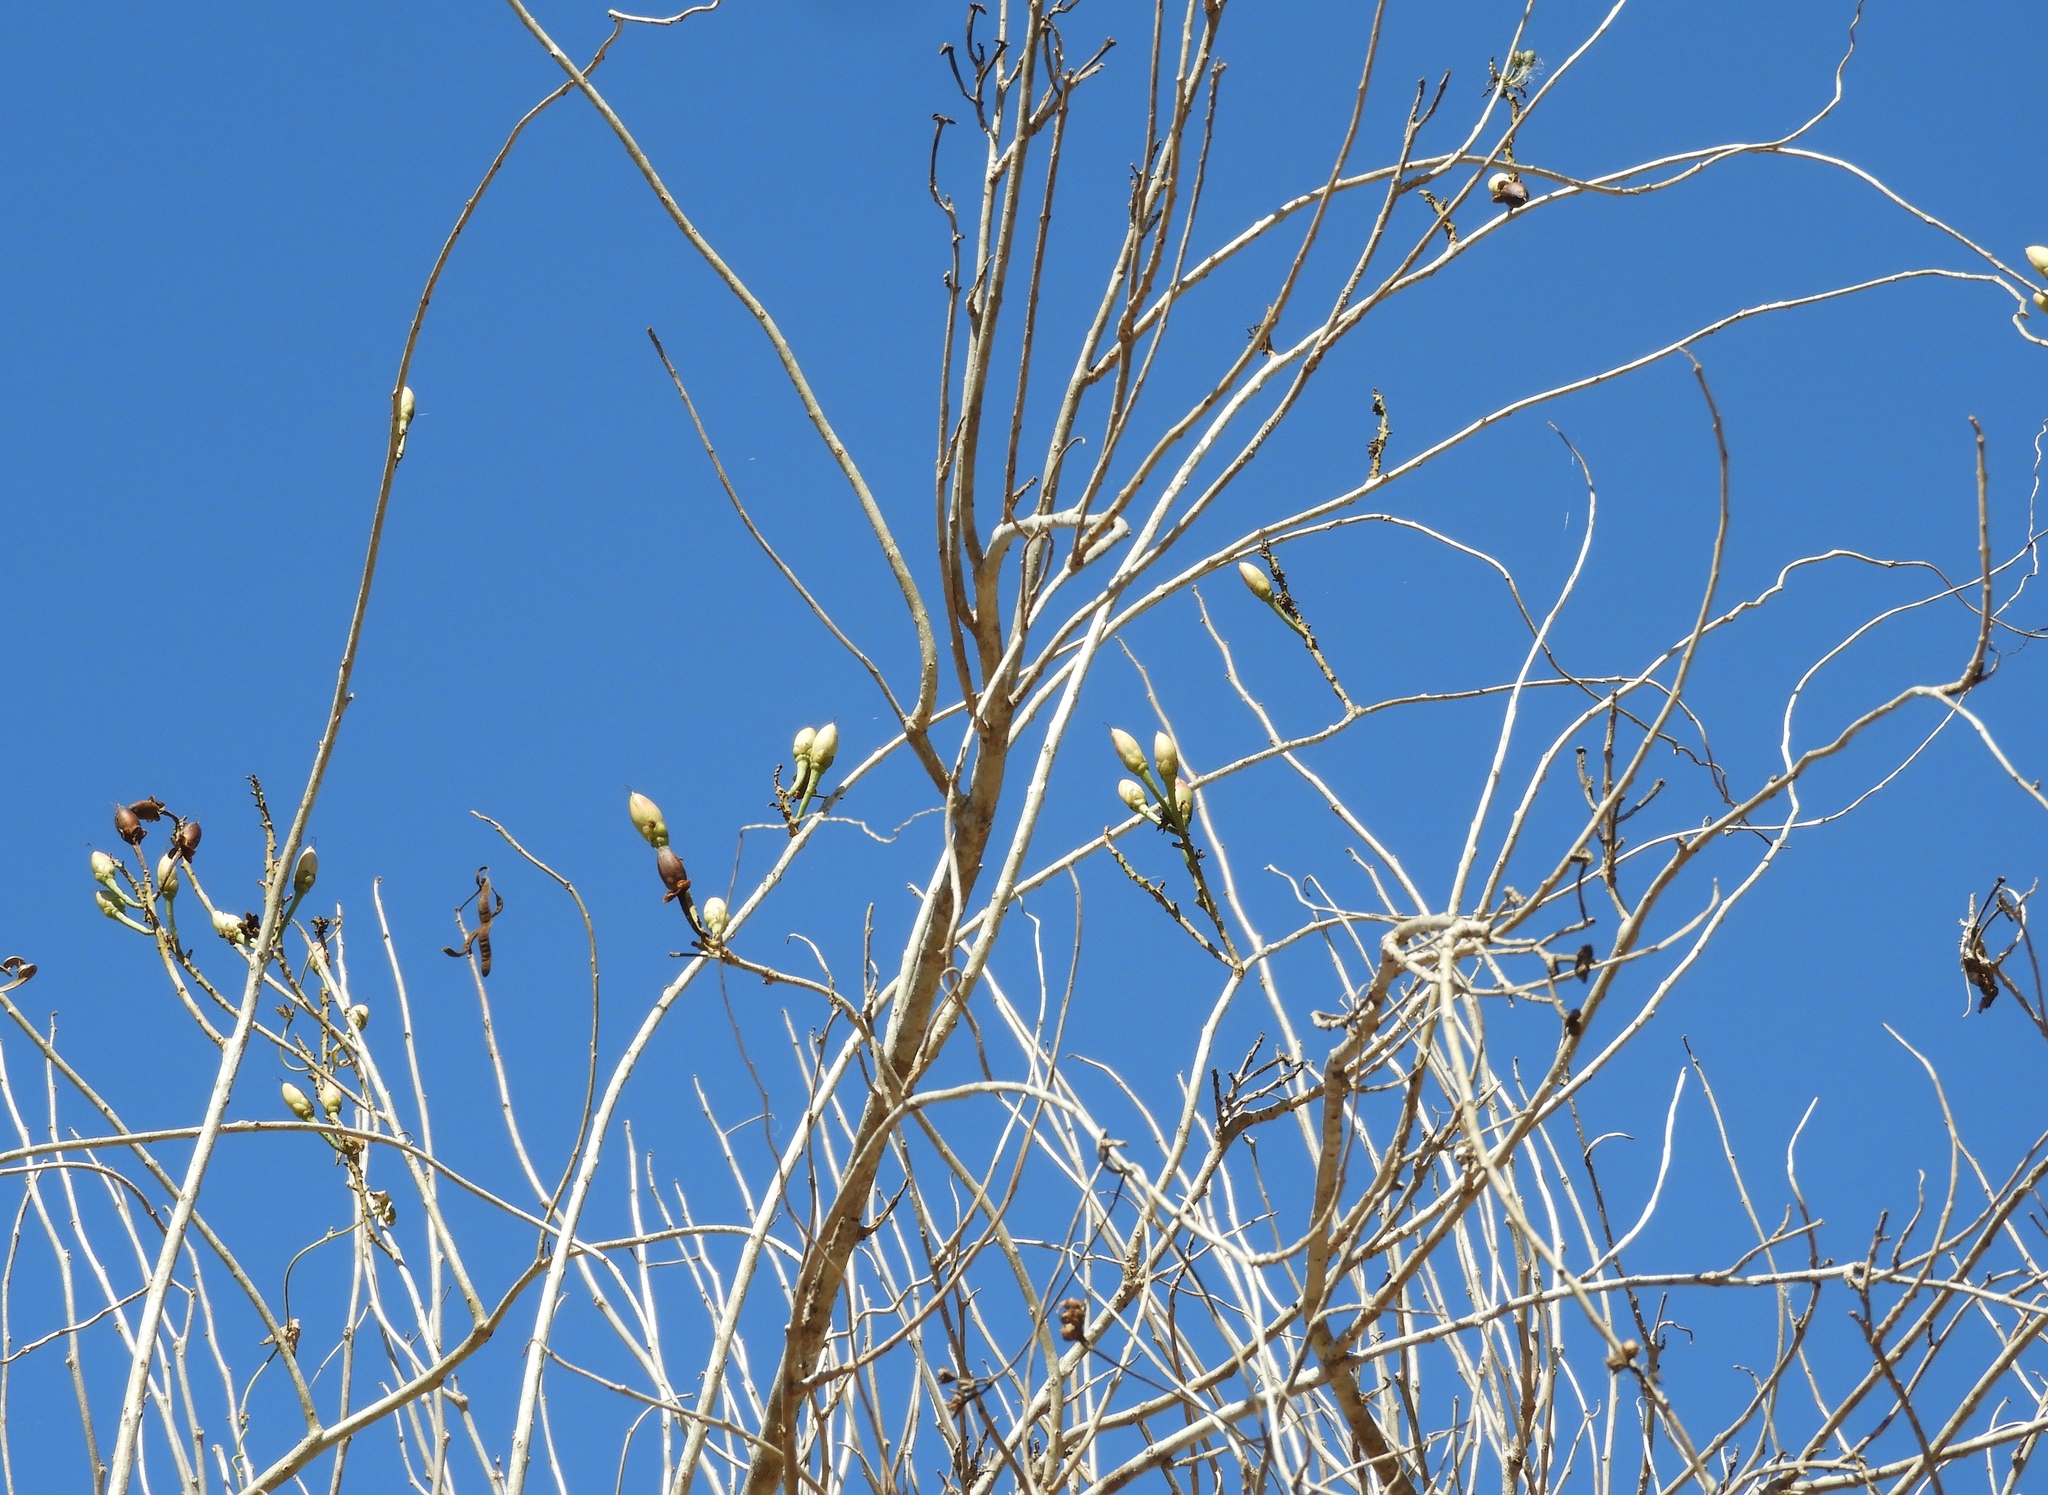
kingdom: Plantae
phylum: Tracheophyta
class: Magnoliopsida
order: Solanales
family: Convolvulaceae
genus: Ipomoea
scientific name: Ipomoea arborescens
